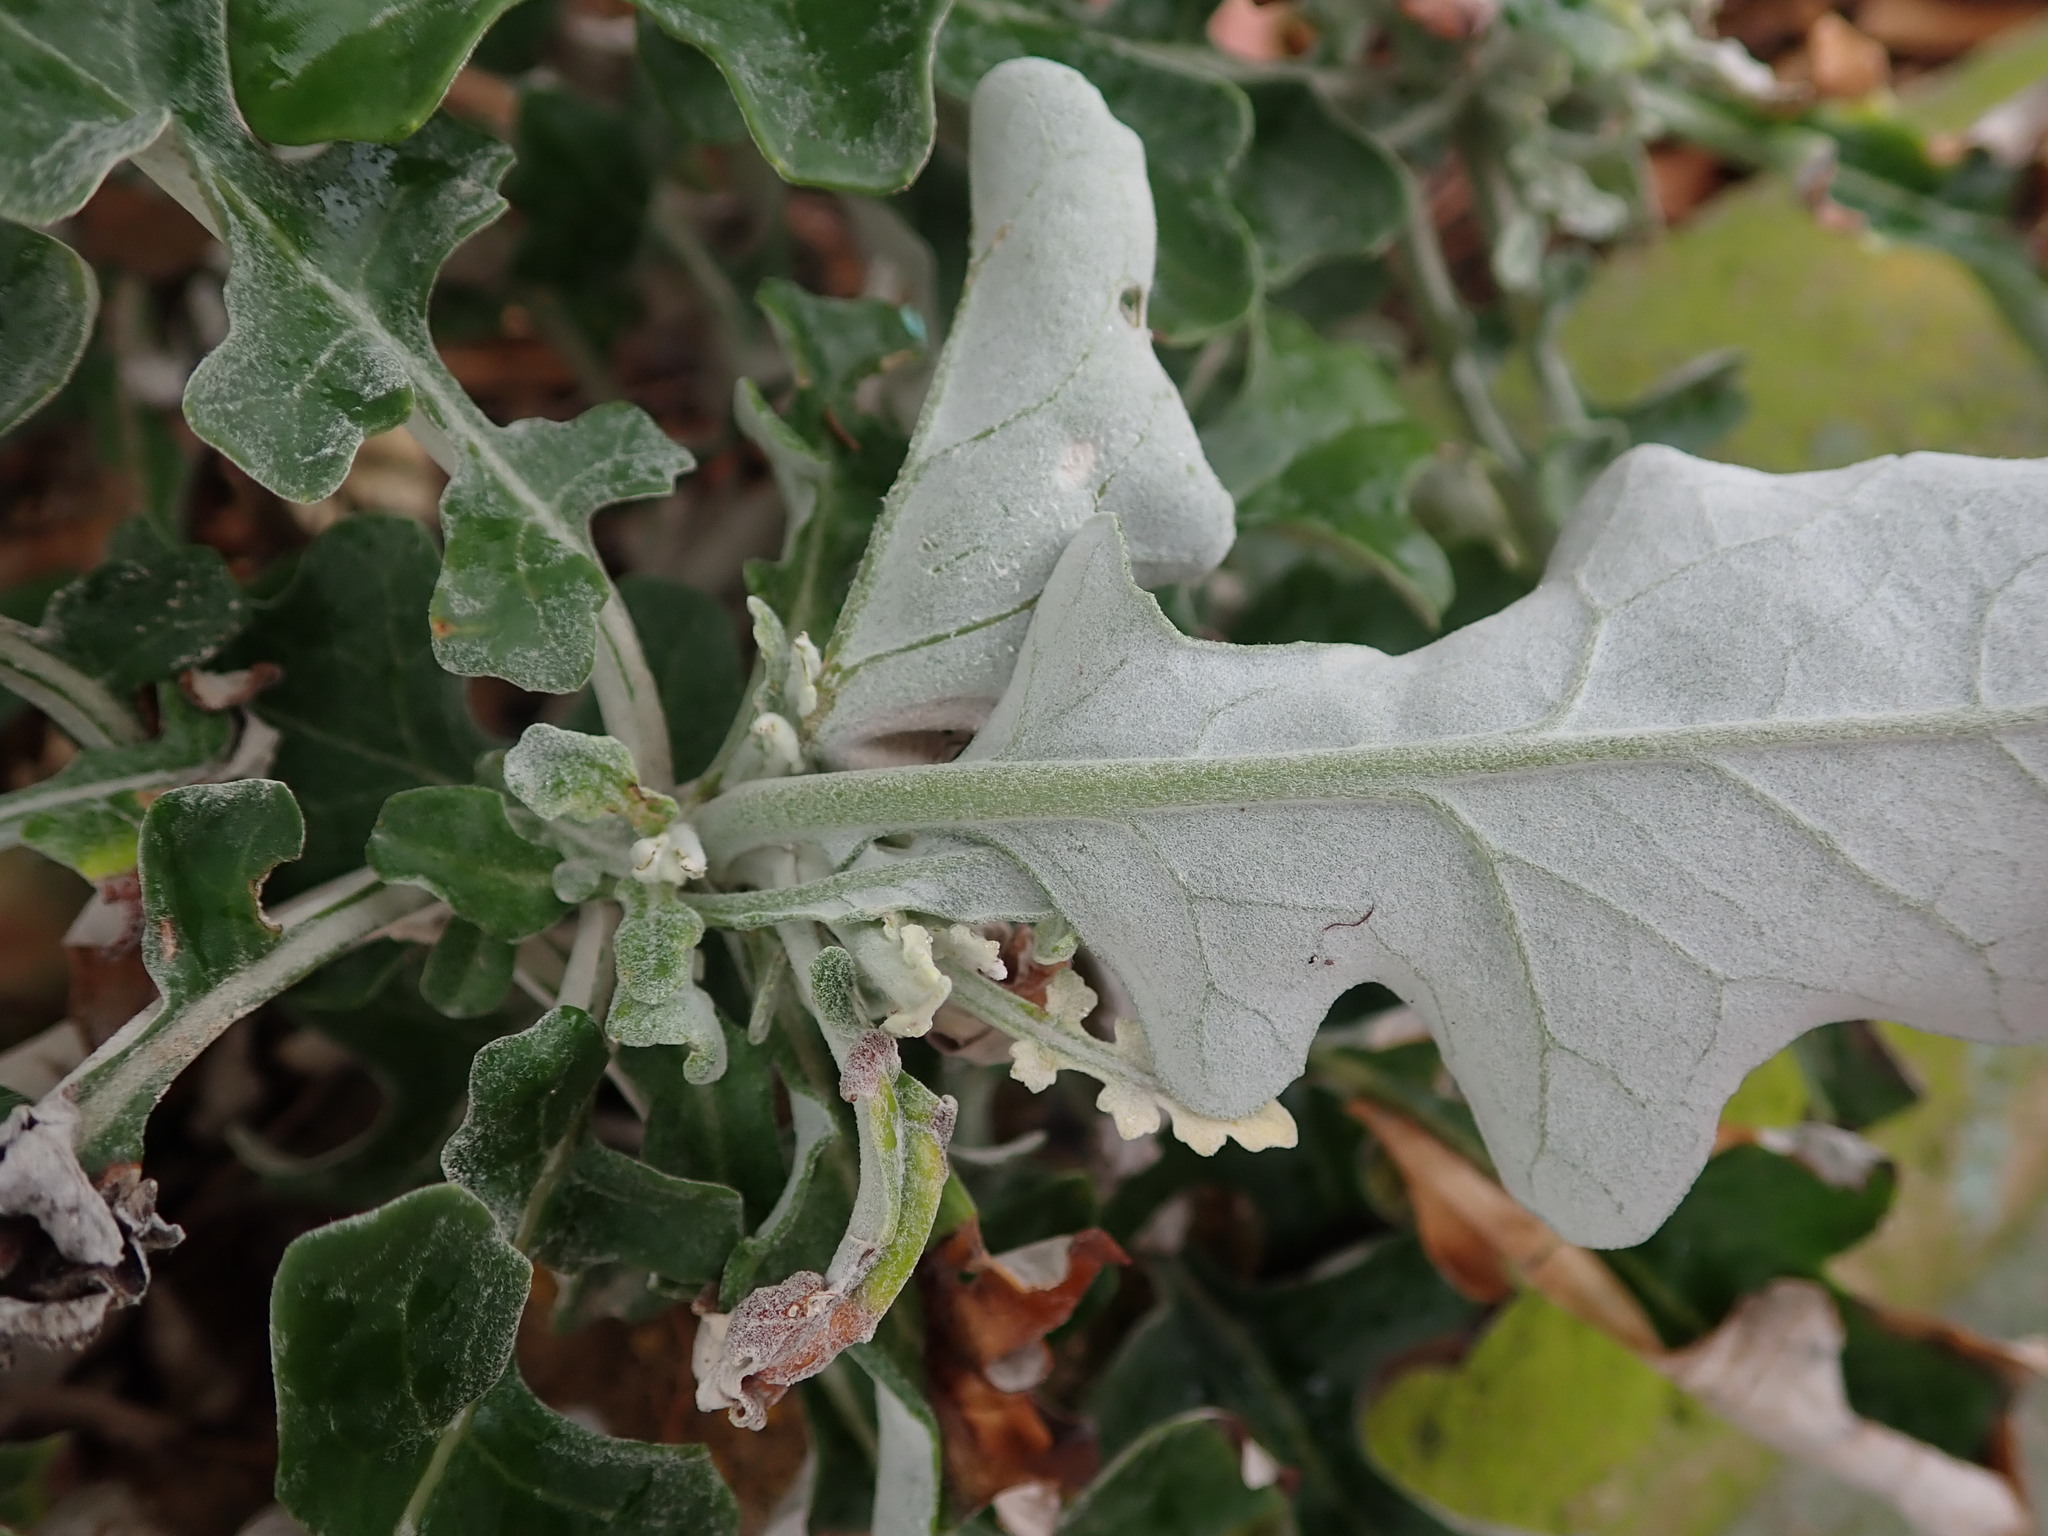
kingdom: Plantae
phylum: Tracheophyta
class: Magnoliopsida
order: Asterales
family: Asteraceae
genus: Jacobaea
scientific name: Jacobaea maritima
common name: Silver ragwort
